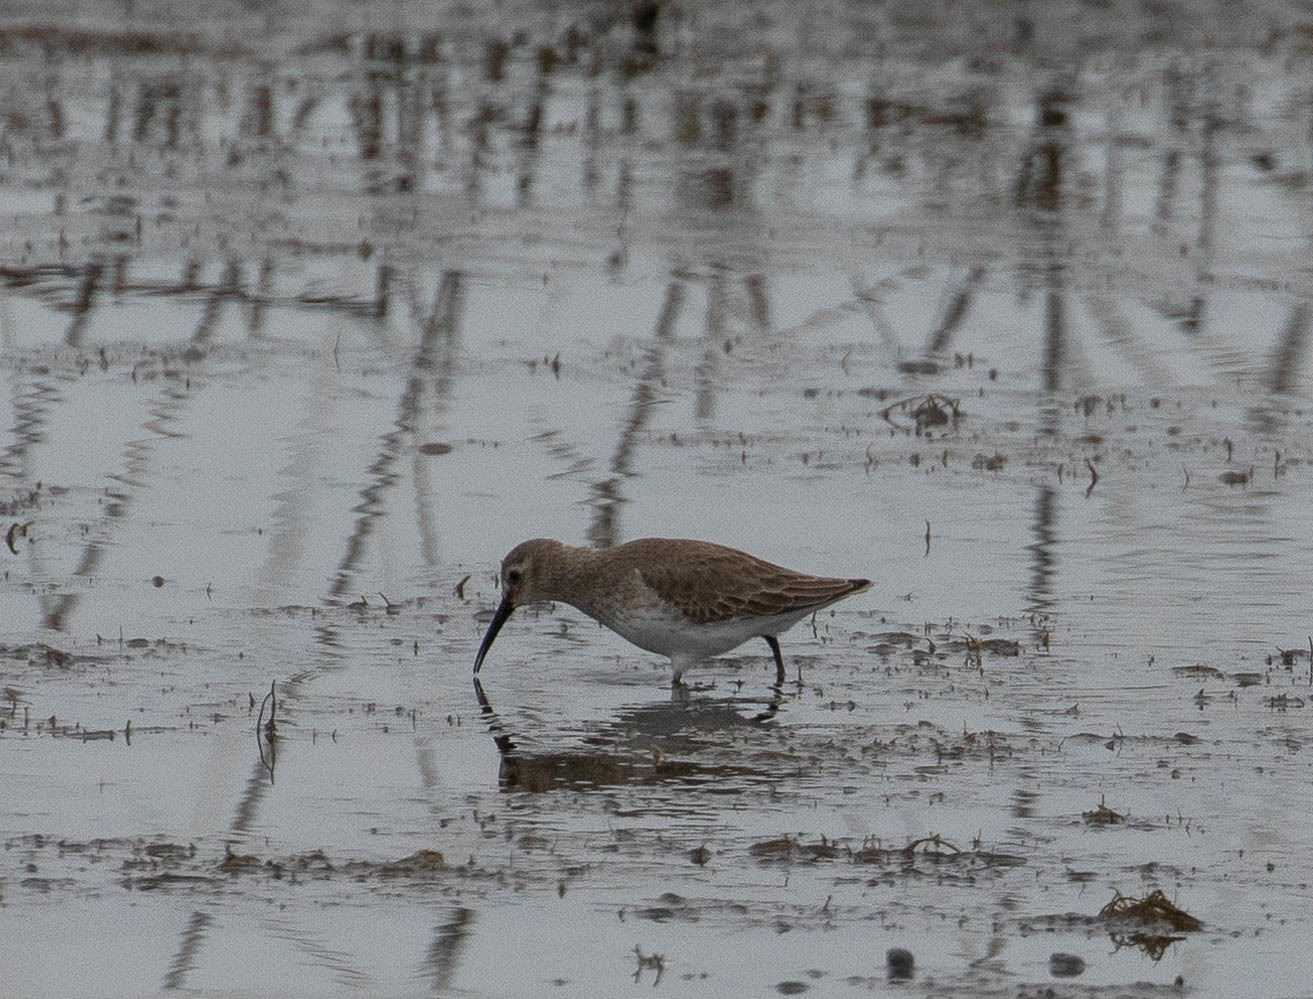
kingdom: Animalia
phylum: Chordata
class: Aves
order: Charadriiformes
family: Scolopacidae
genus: Calidris
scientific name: Calidris alpina
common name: Dunlin
